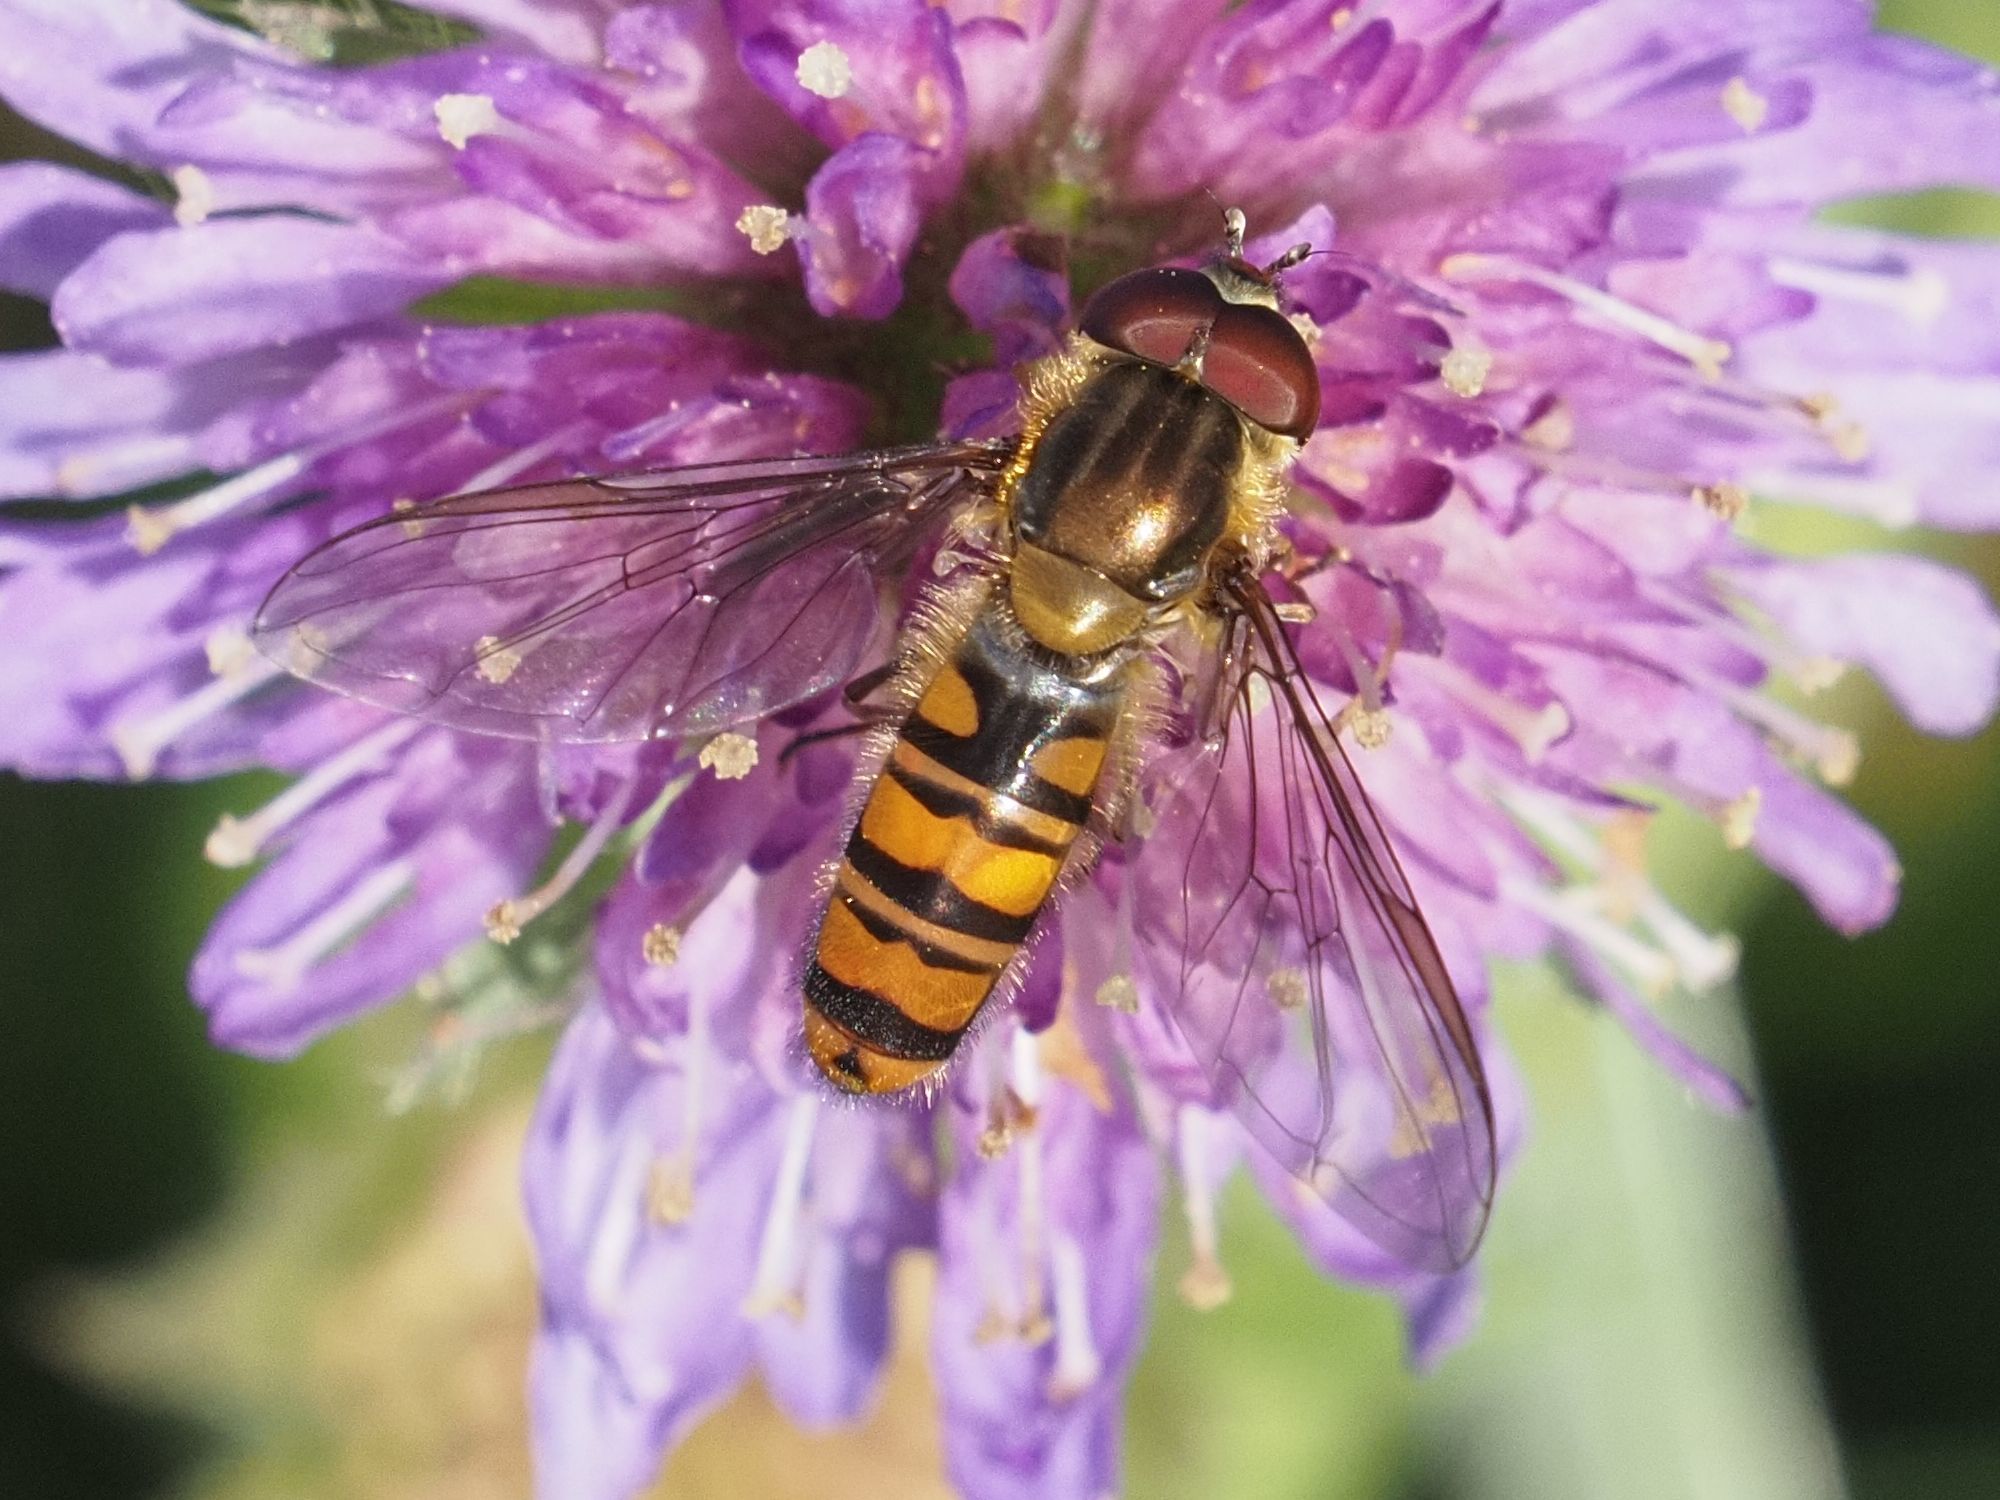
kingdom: Animalia
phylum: Arthropoda
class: Insecta
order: Diptera
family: Syrphidae
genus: Episyrphus
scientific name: Episyrphus balteatus
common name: Marmalade hoverfly
